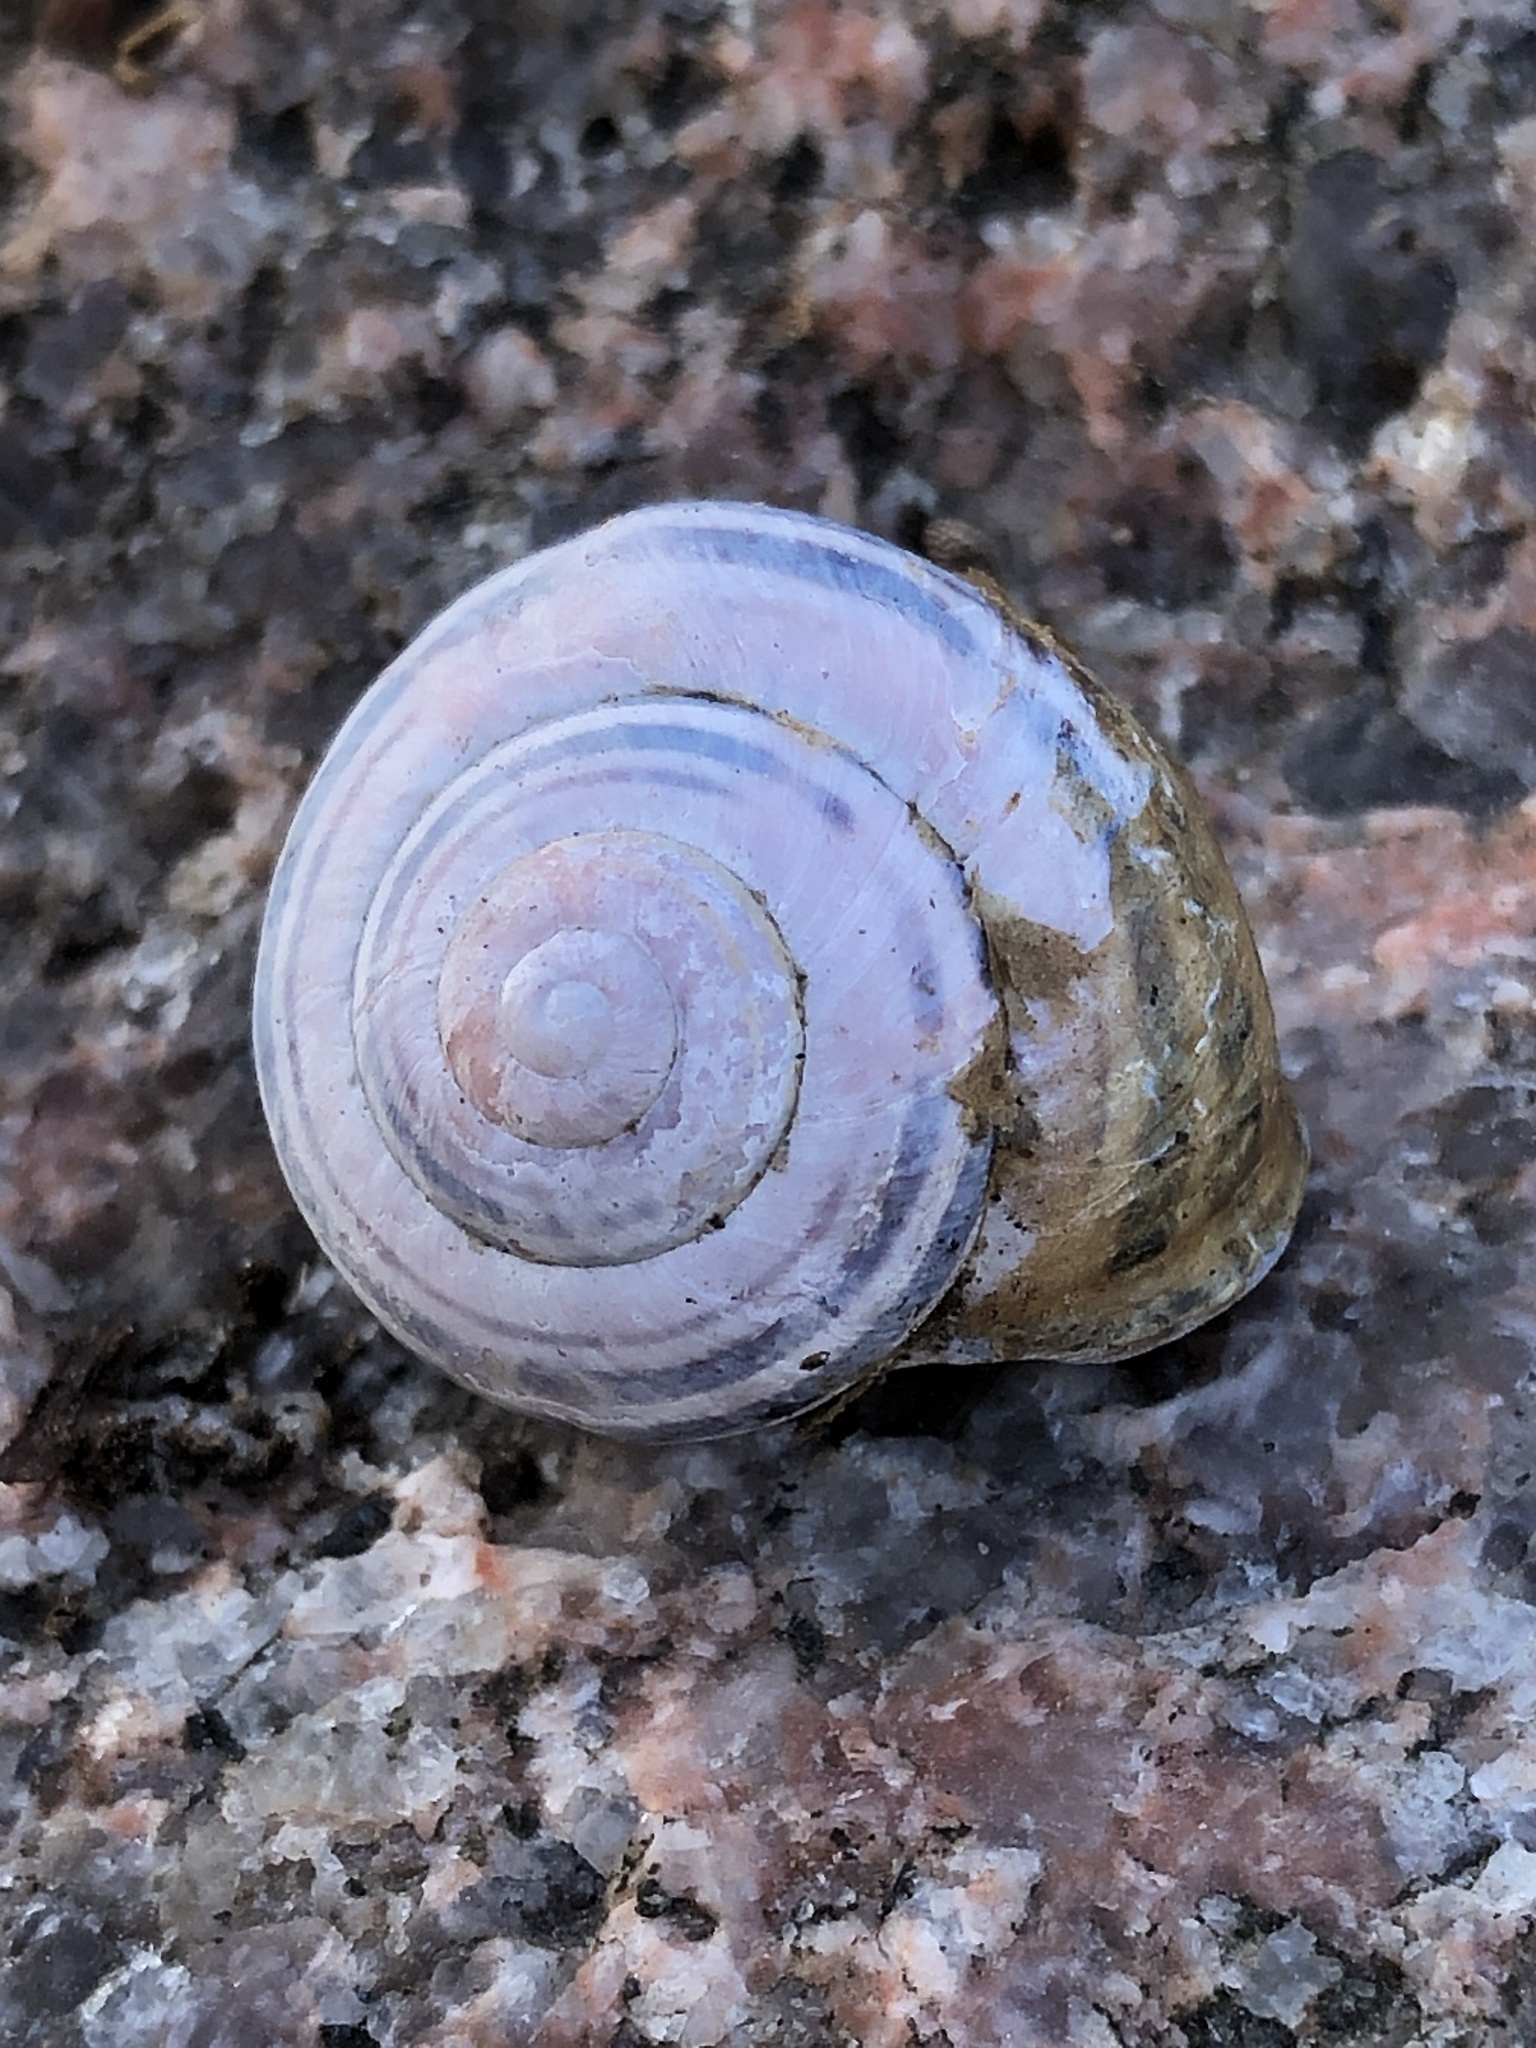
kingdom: Animalia
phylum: Mollusca
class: Gastropoda
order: Stylommatophora
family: Helicidae
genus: Cepaea
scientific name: Cepaea nemoralis
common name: Grovesnail
